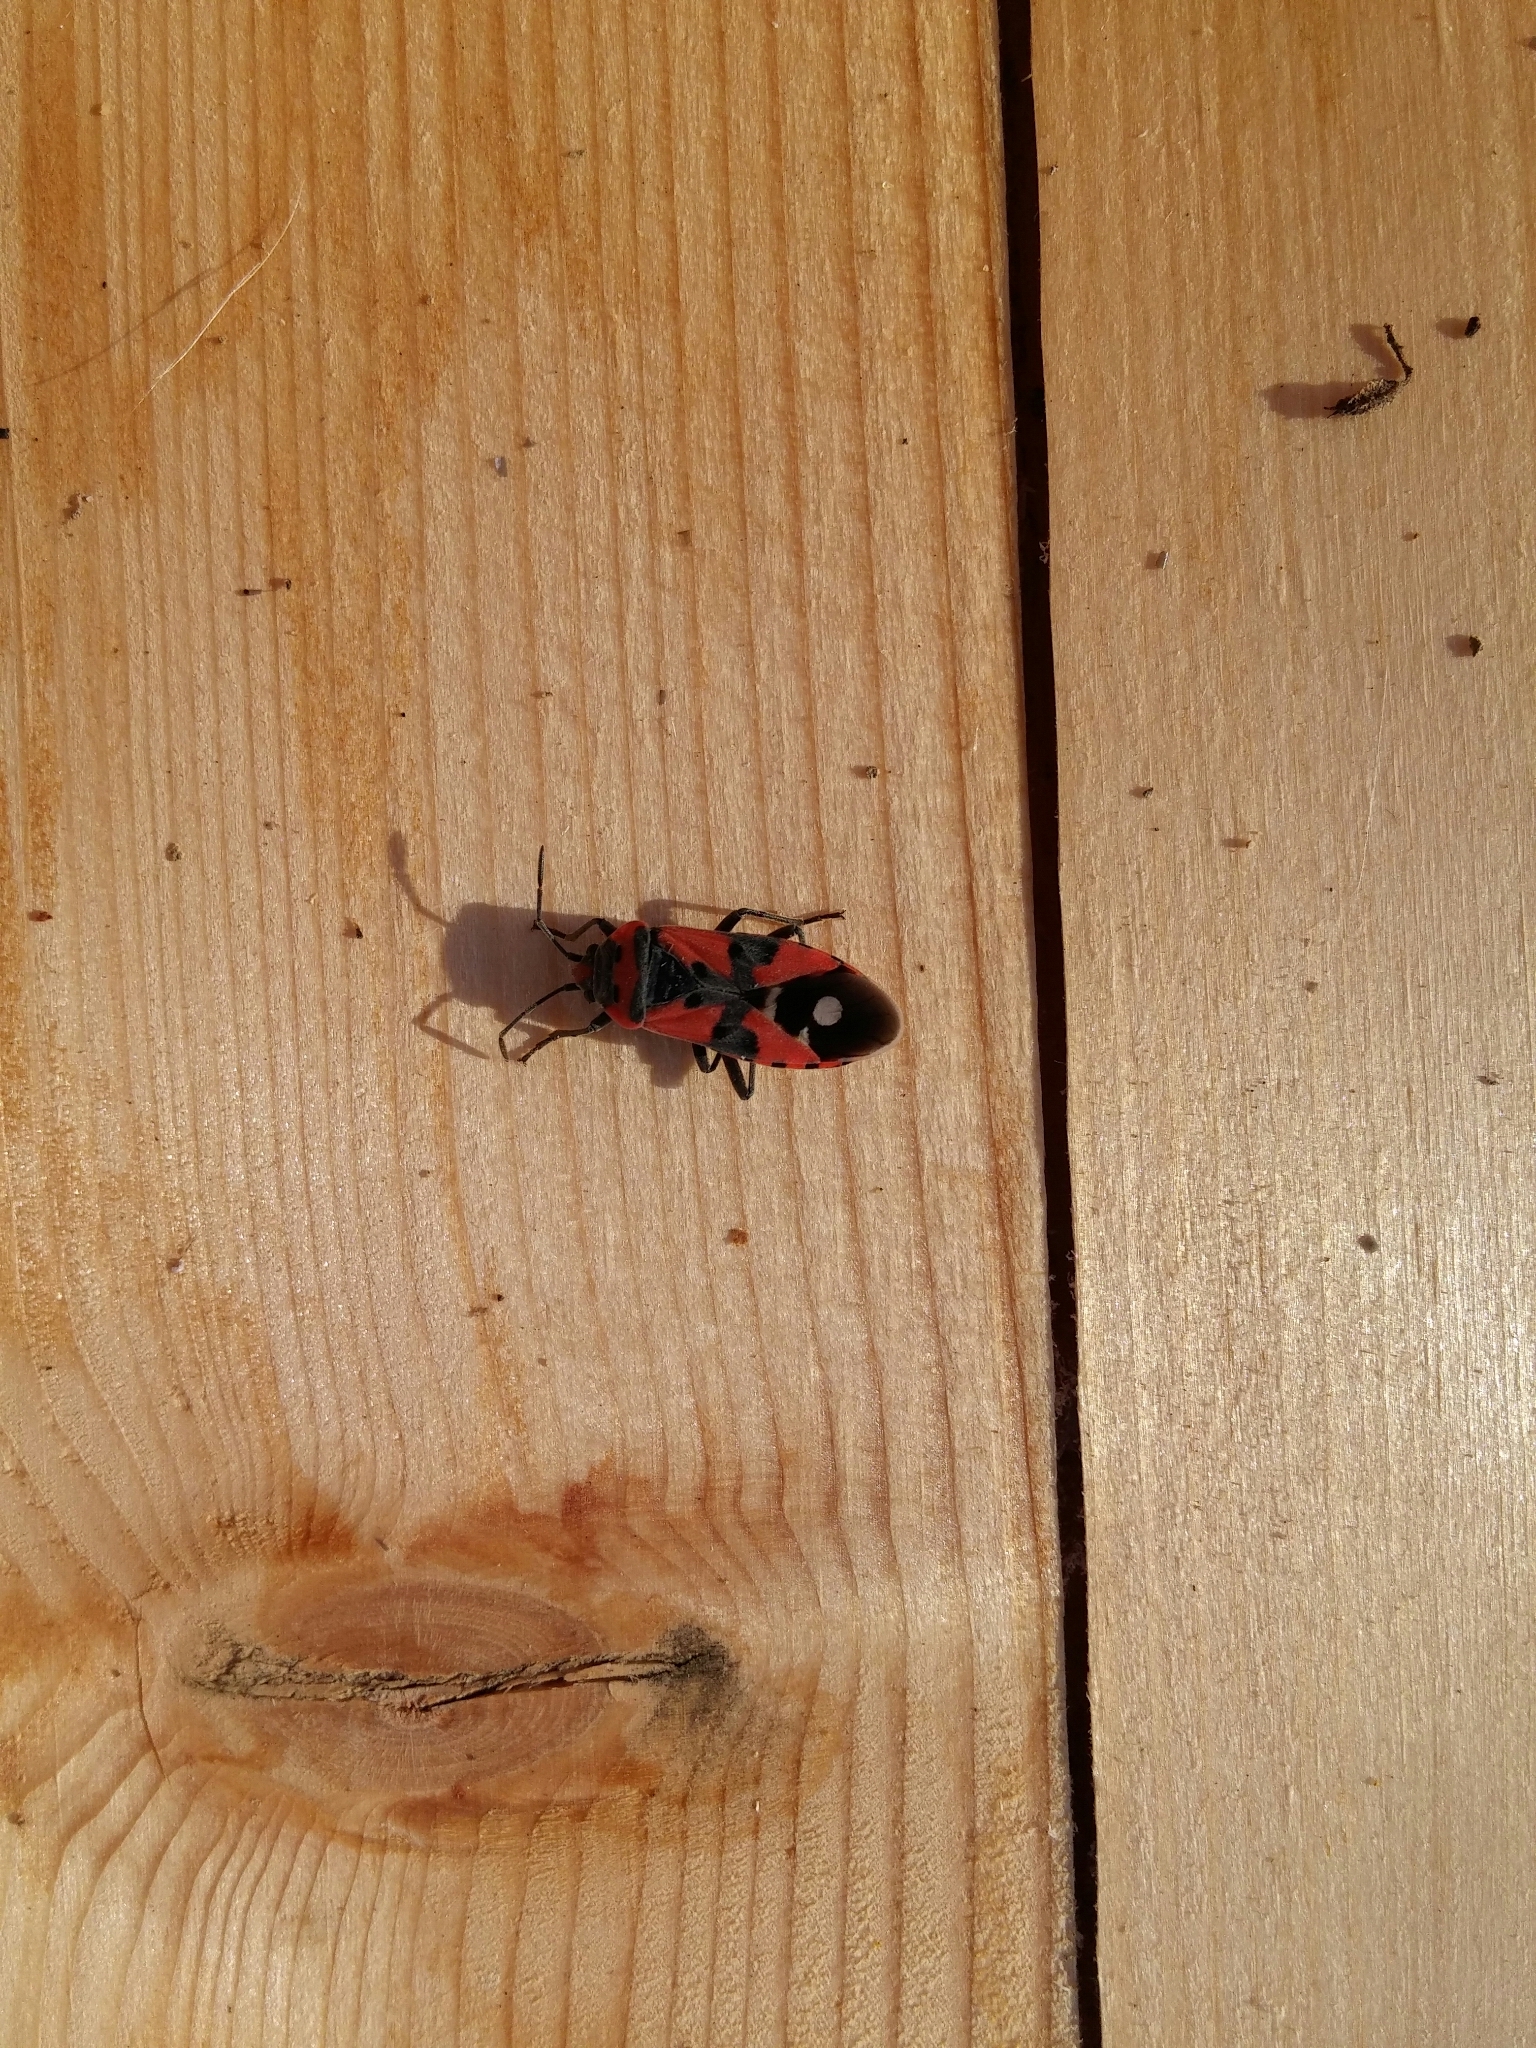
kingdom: Animalia
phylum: Arthropoda
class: Insecta
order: Hemiptera
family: Lygaeidae
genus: Lygaeus
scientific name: Lygaeus equestris
